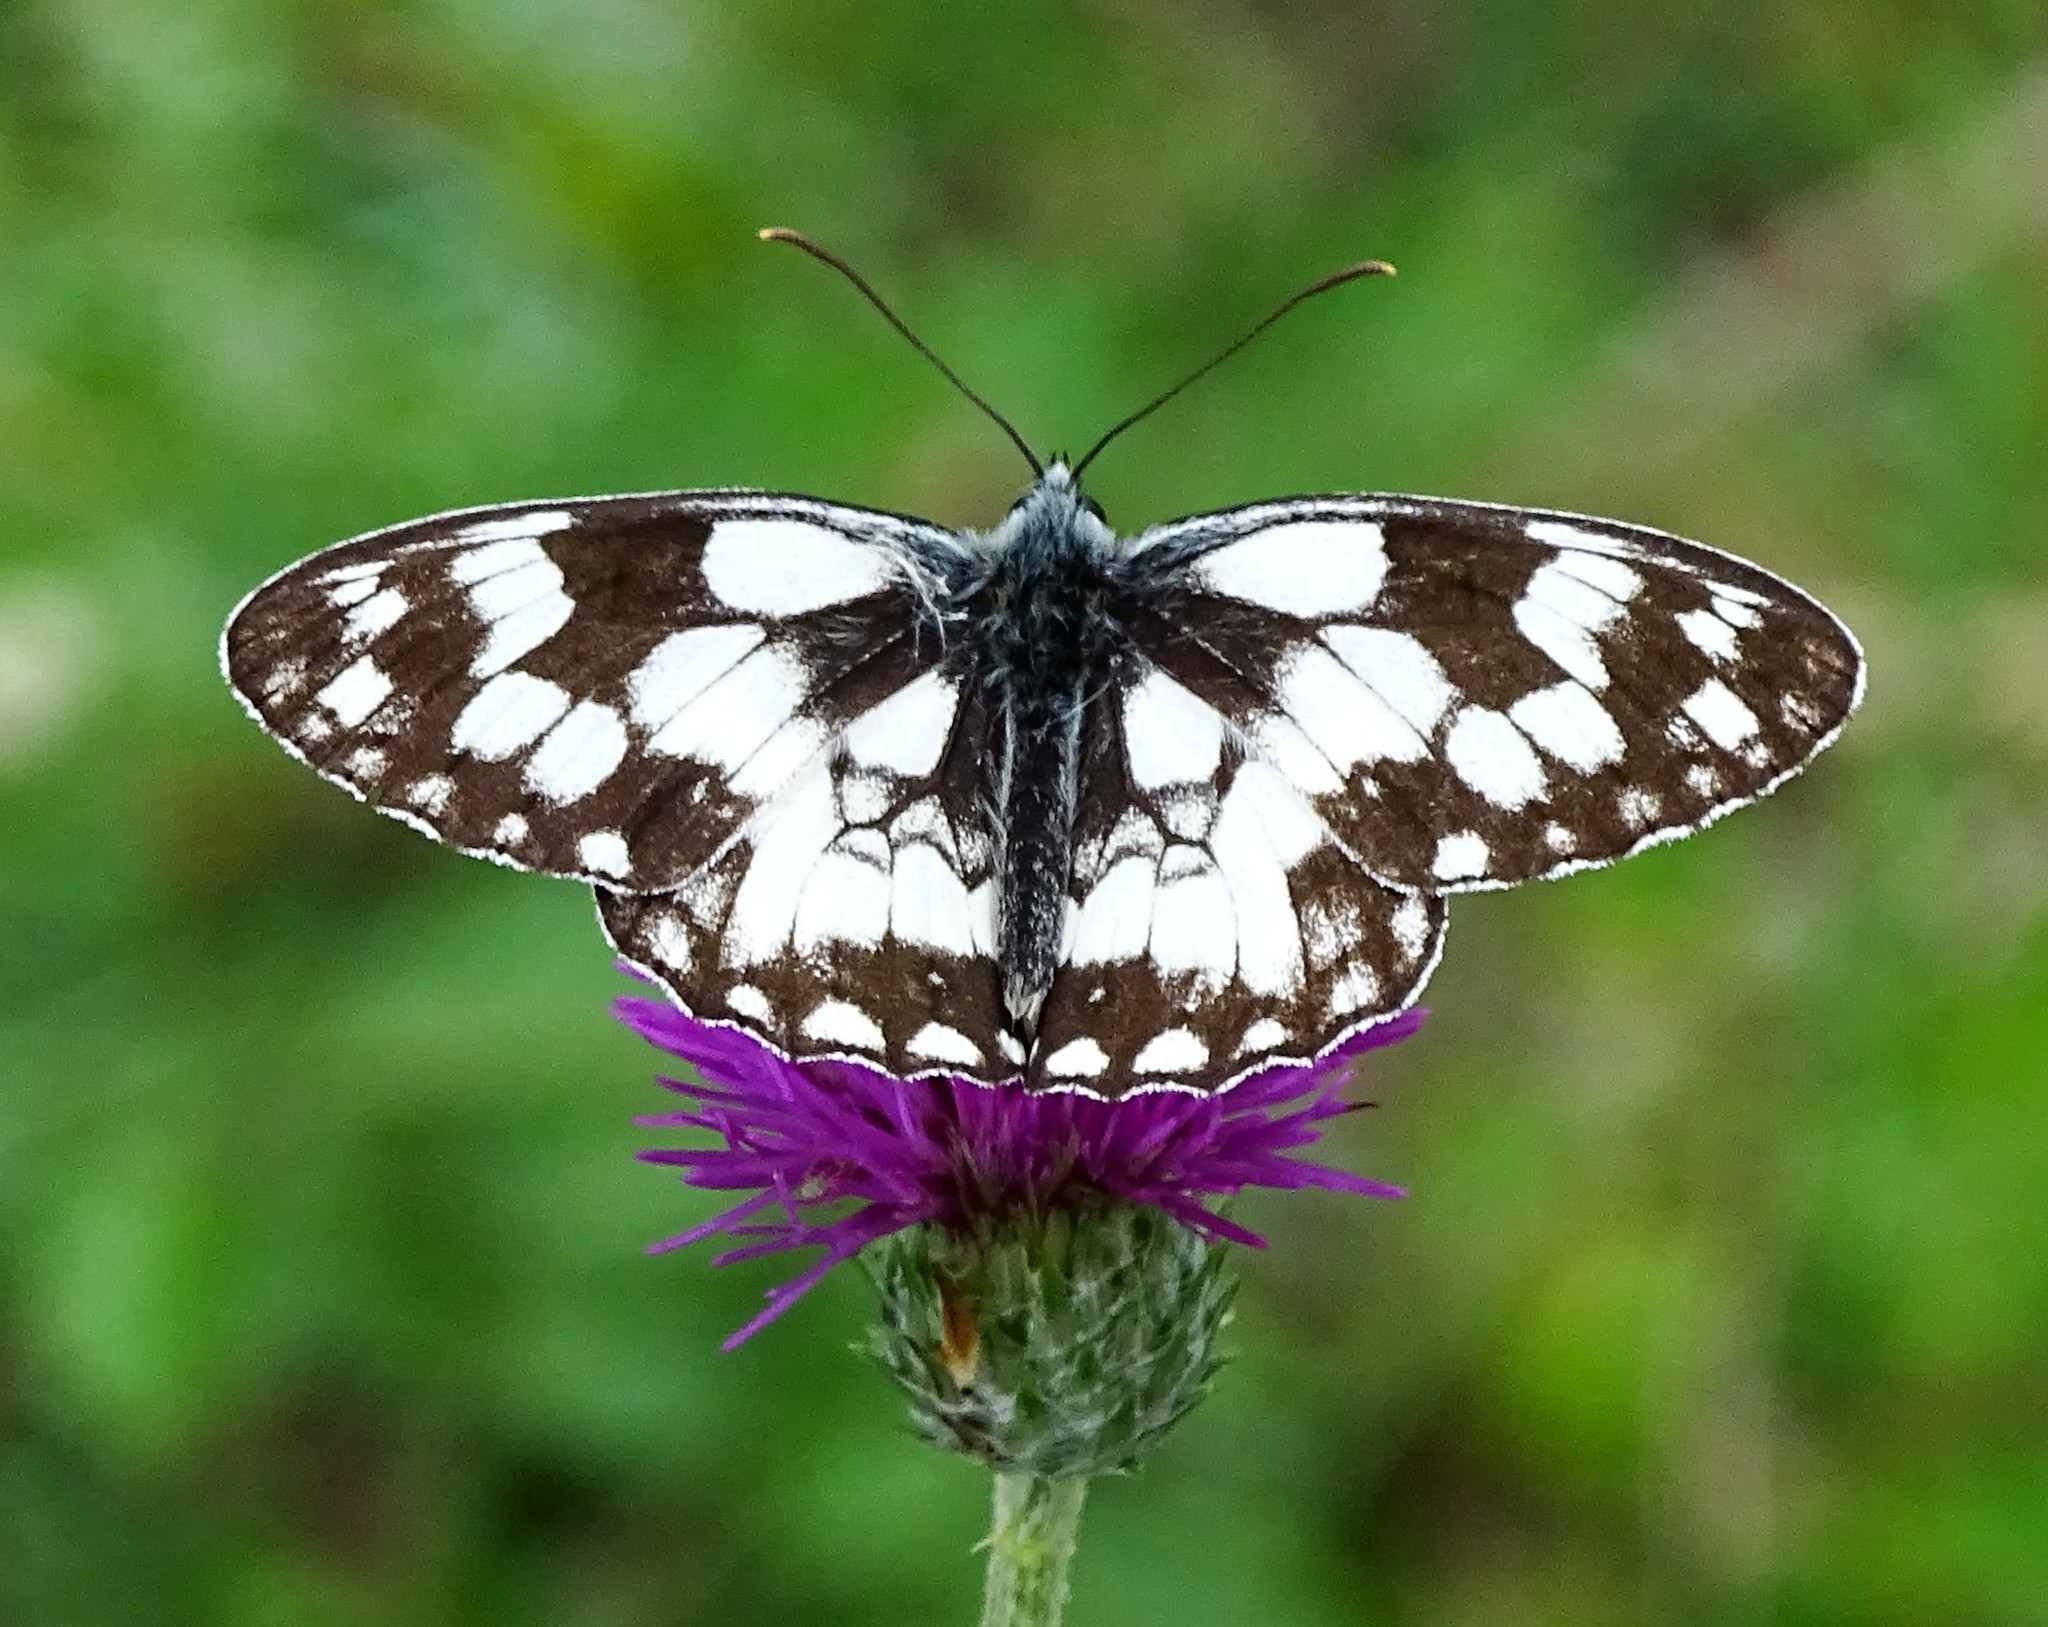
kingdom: Animalia
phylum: Arthropoda
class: Insecta
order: Lepidoptera
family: Nymphalidae
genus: Melanargia
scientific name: Melanargia galathea
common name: Marbled white
